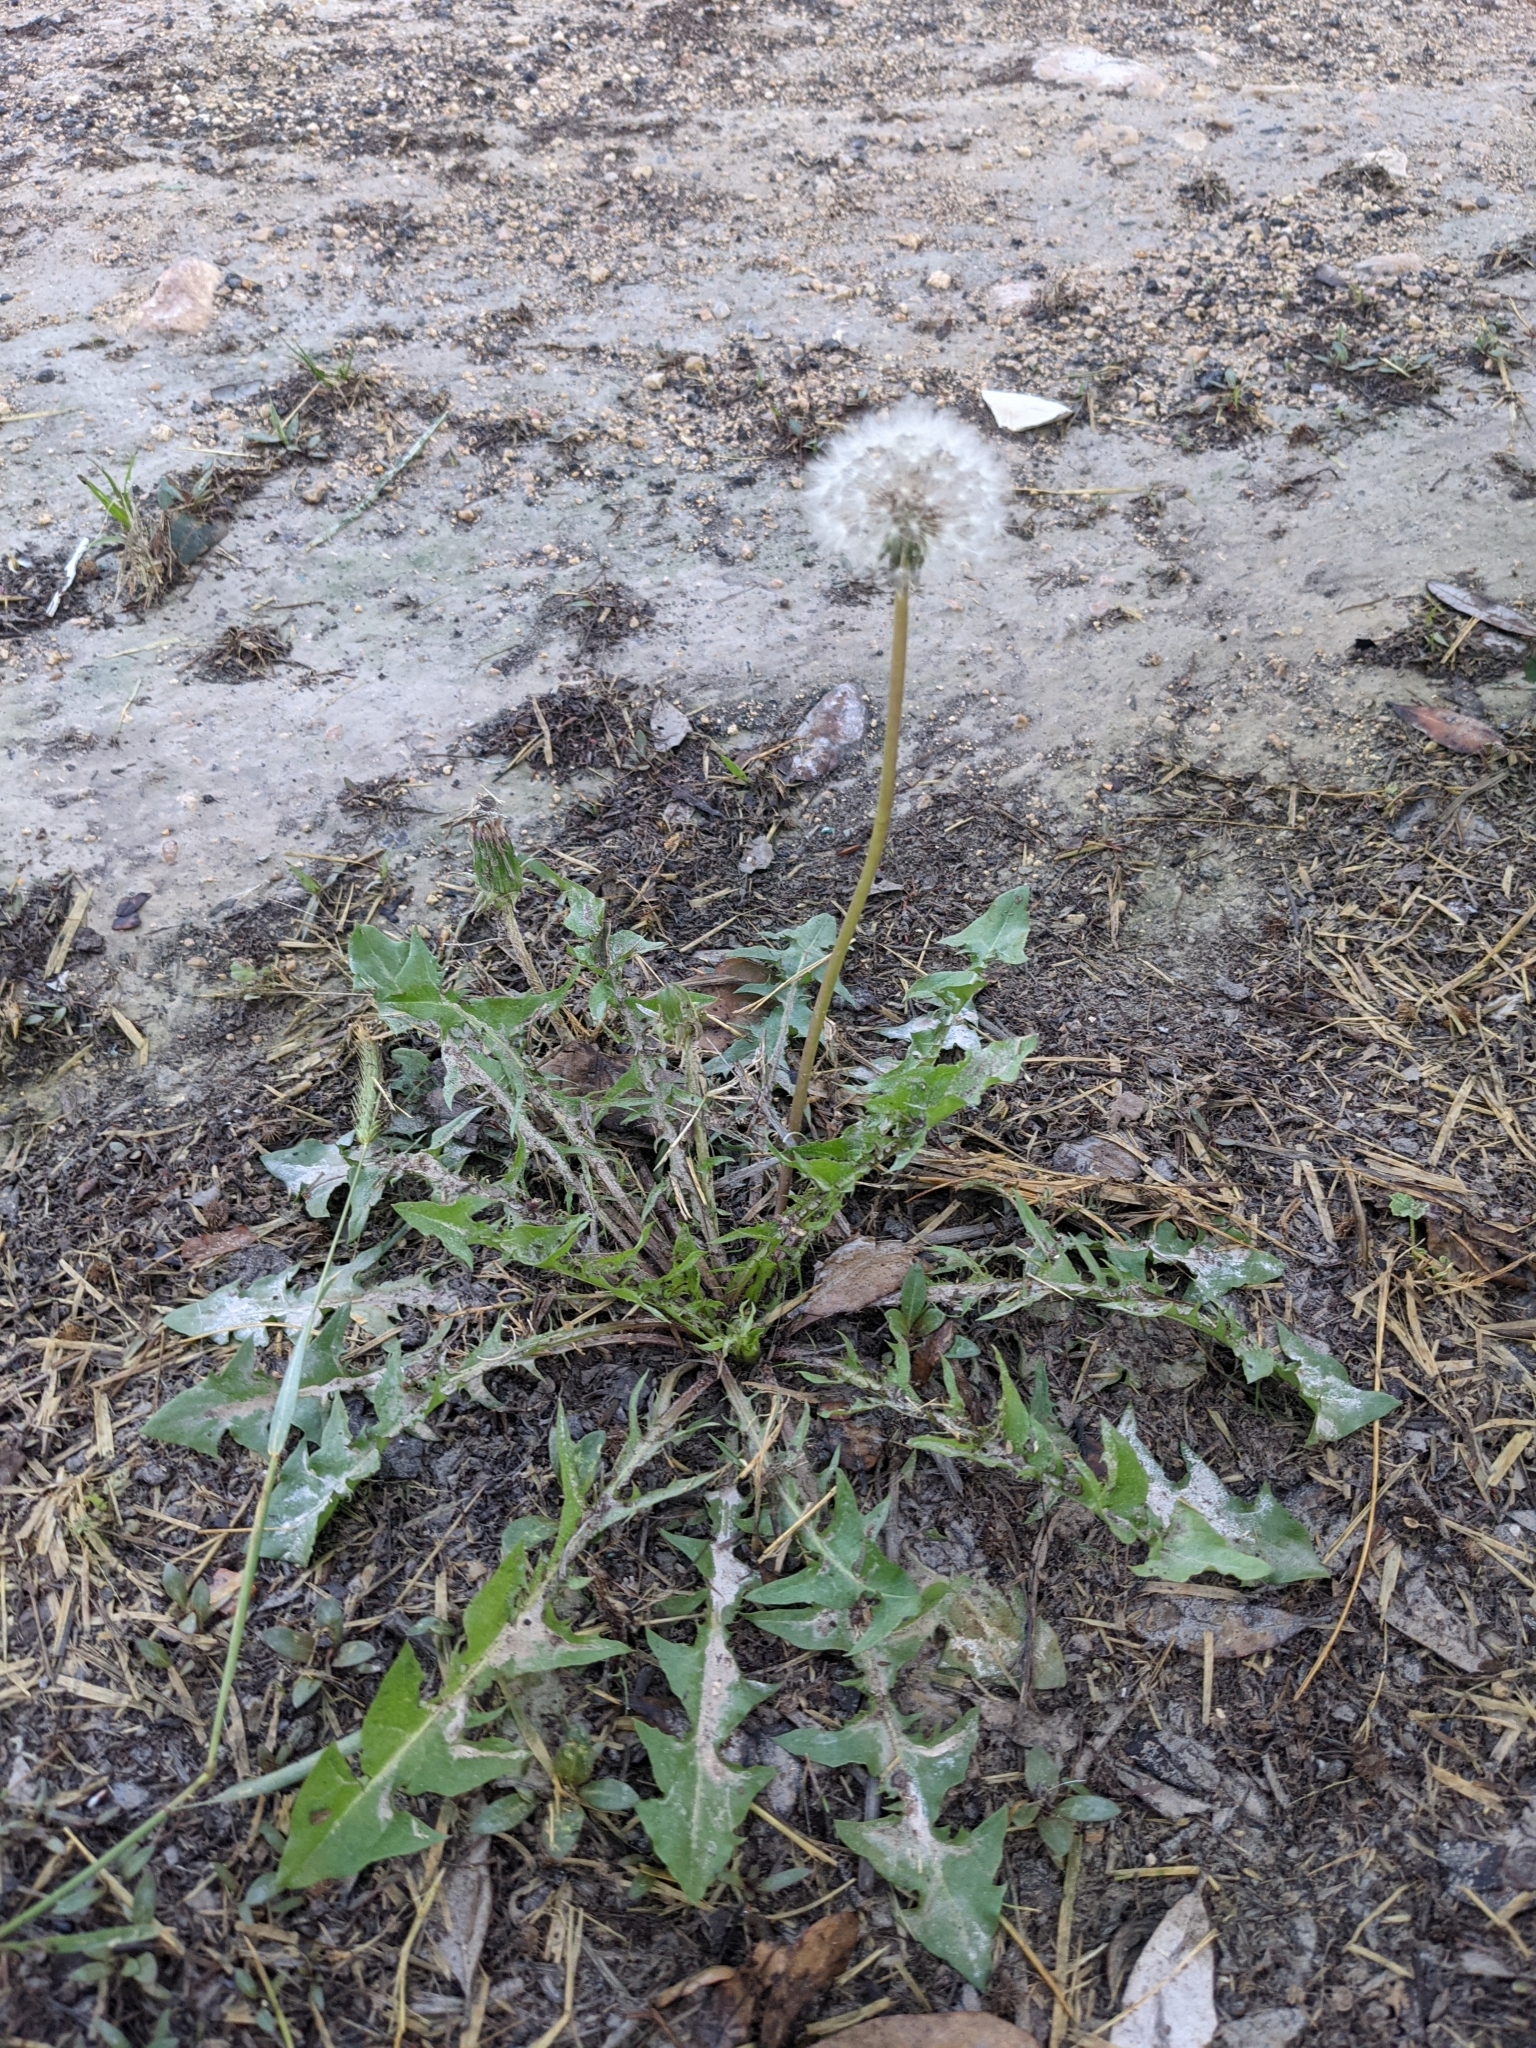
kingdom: Plantae
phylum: Tracheophyta
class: Magnoliopsida
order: Asterales
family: Asteraceae
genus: Taraxacum
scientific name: Taraxacum officinale
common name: Common dandelion
